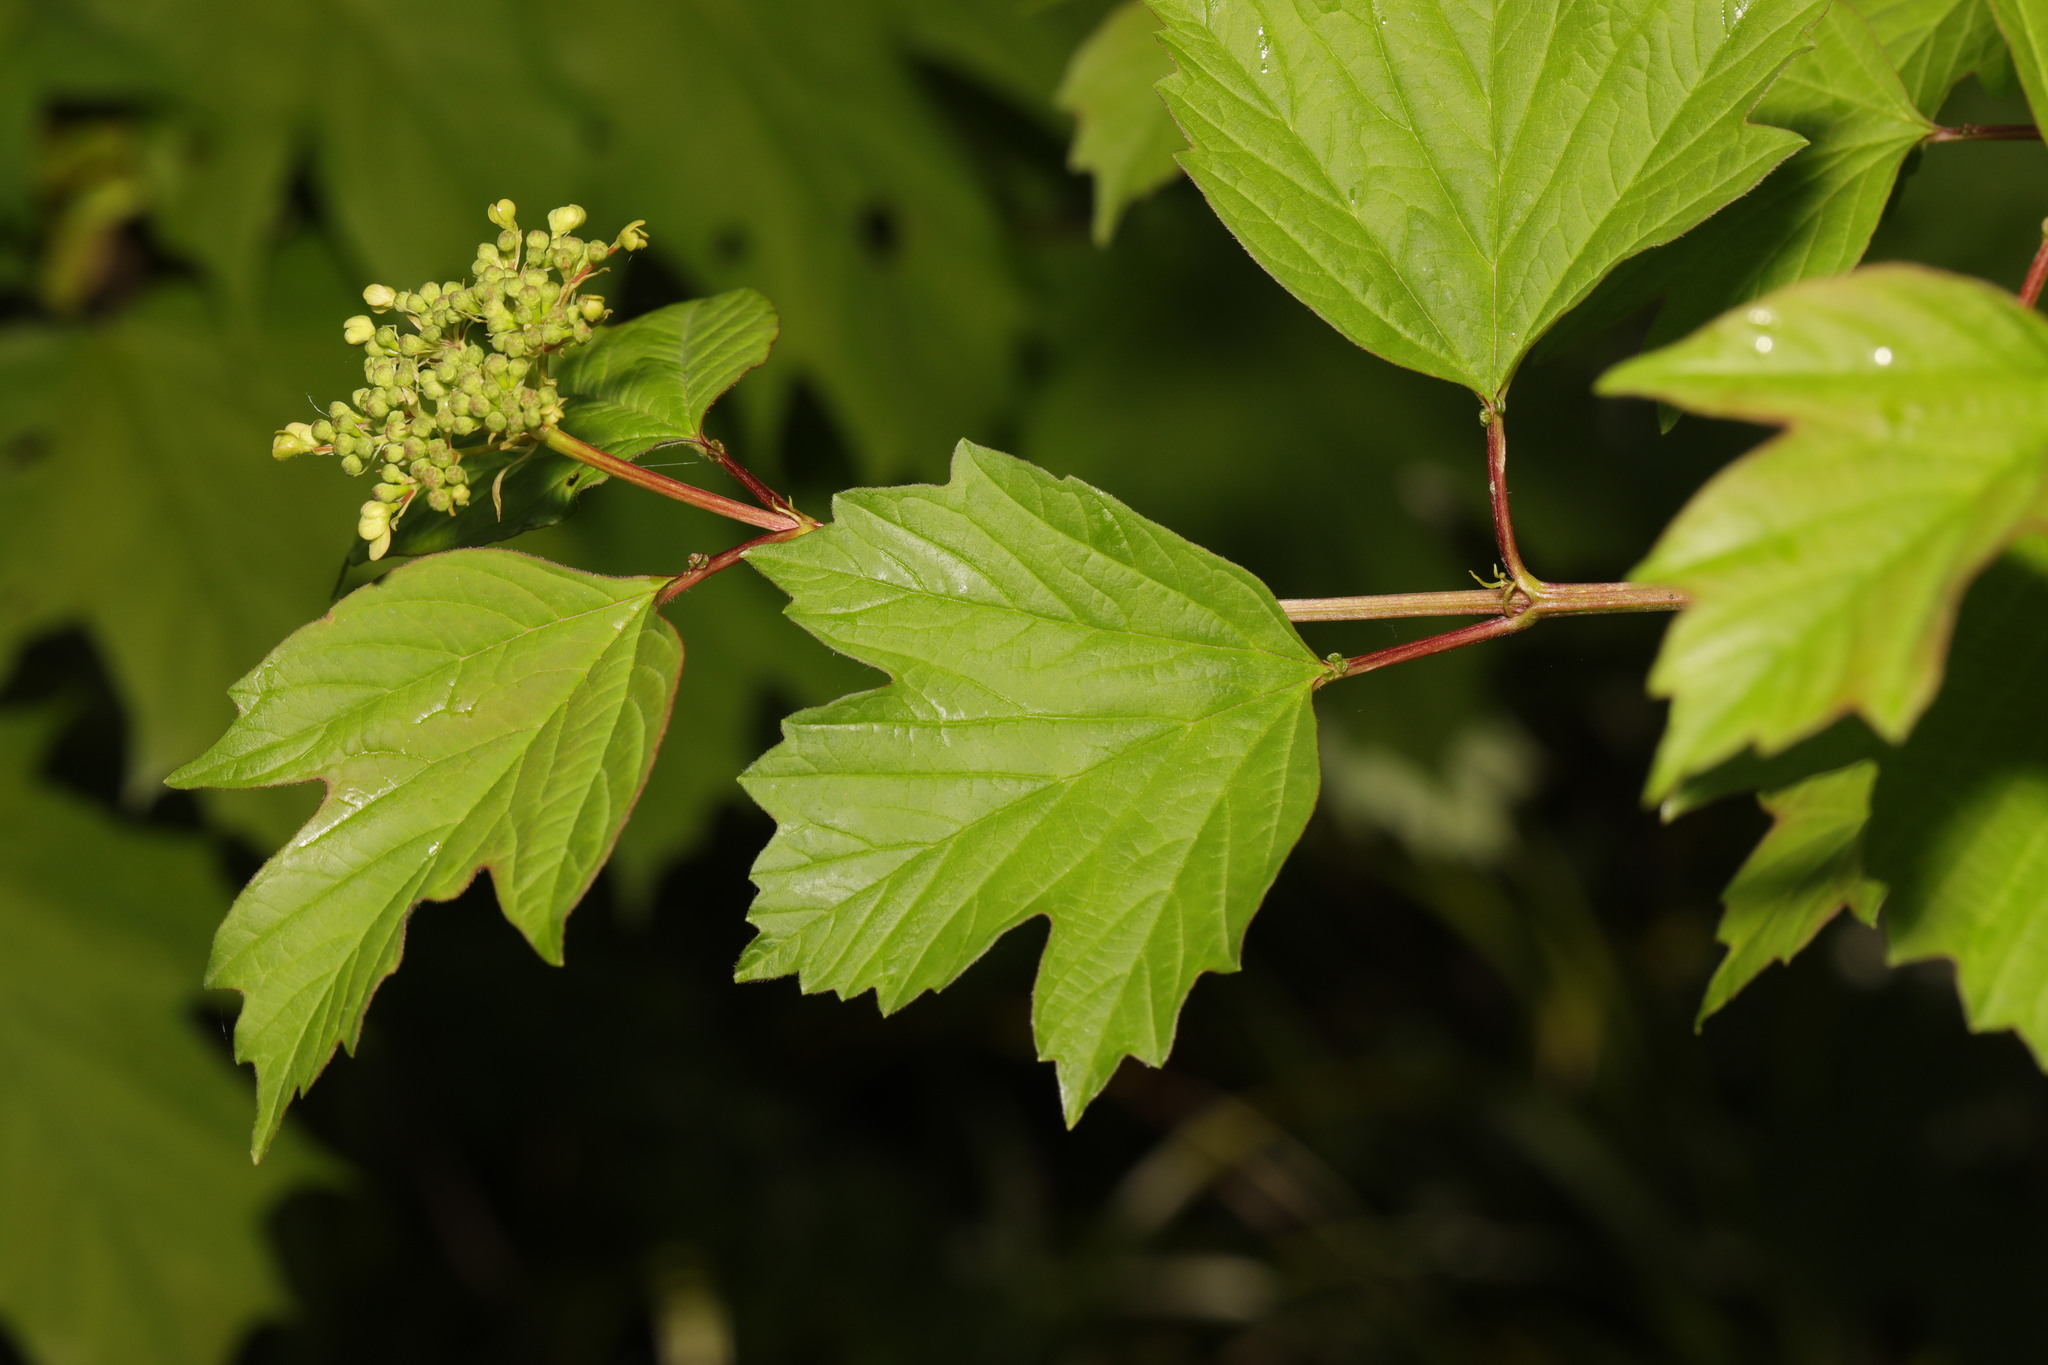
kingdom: Plantae
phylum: Tracheophyta
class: Magnoliopsida
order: Dipsacales
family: Viburnaceae
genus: Viburnum
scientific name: Viburnum opulus
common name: Guelder-rose
